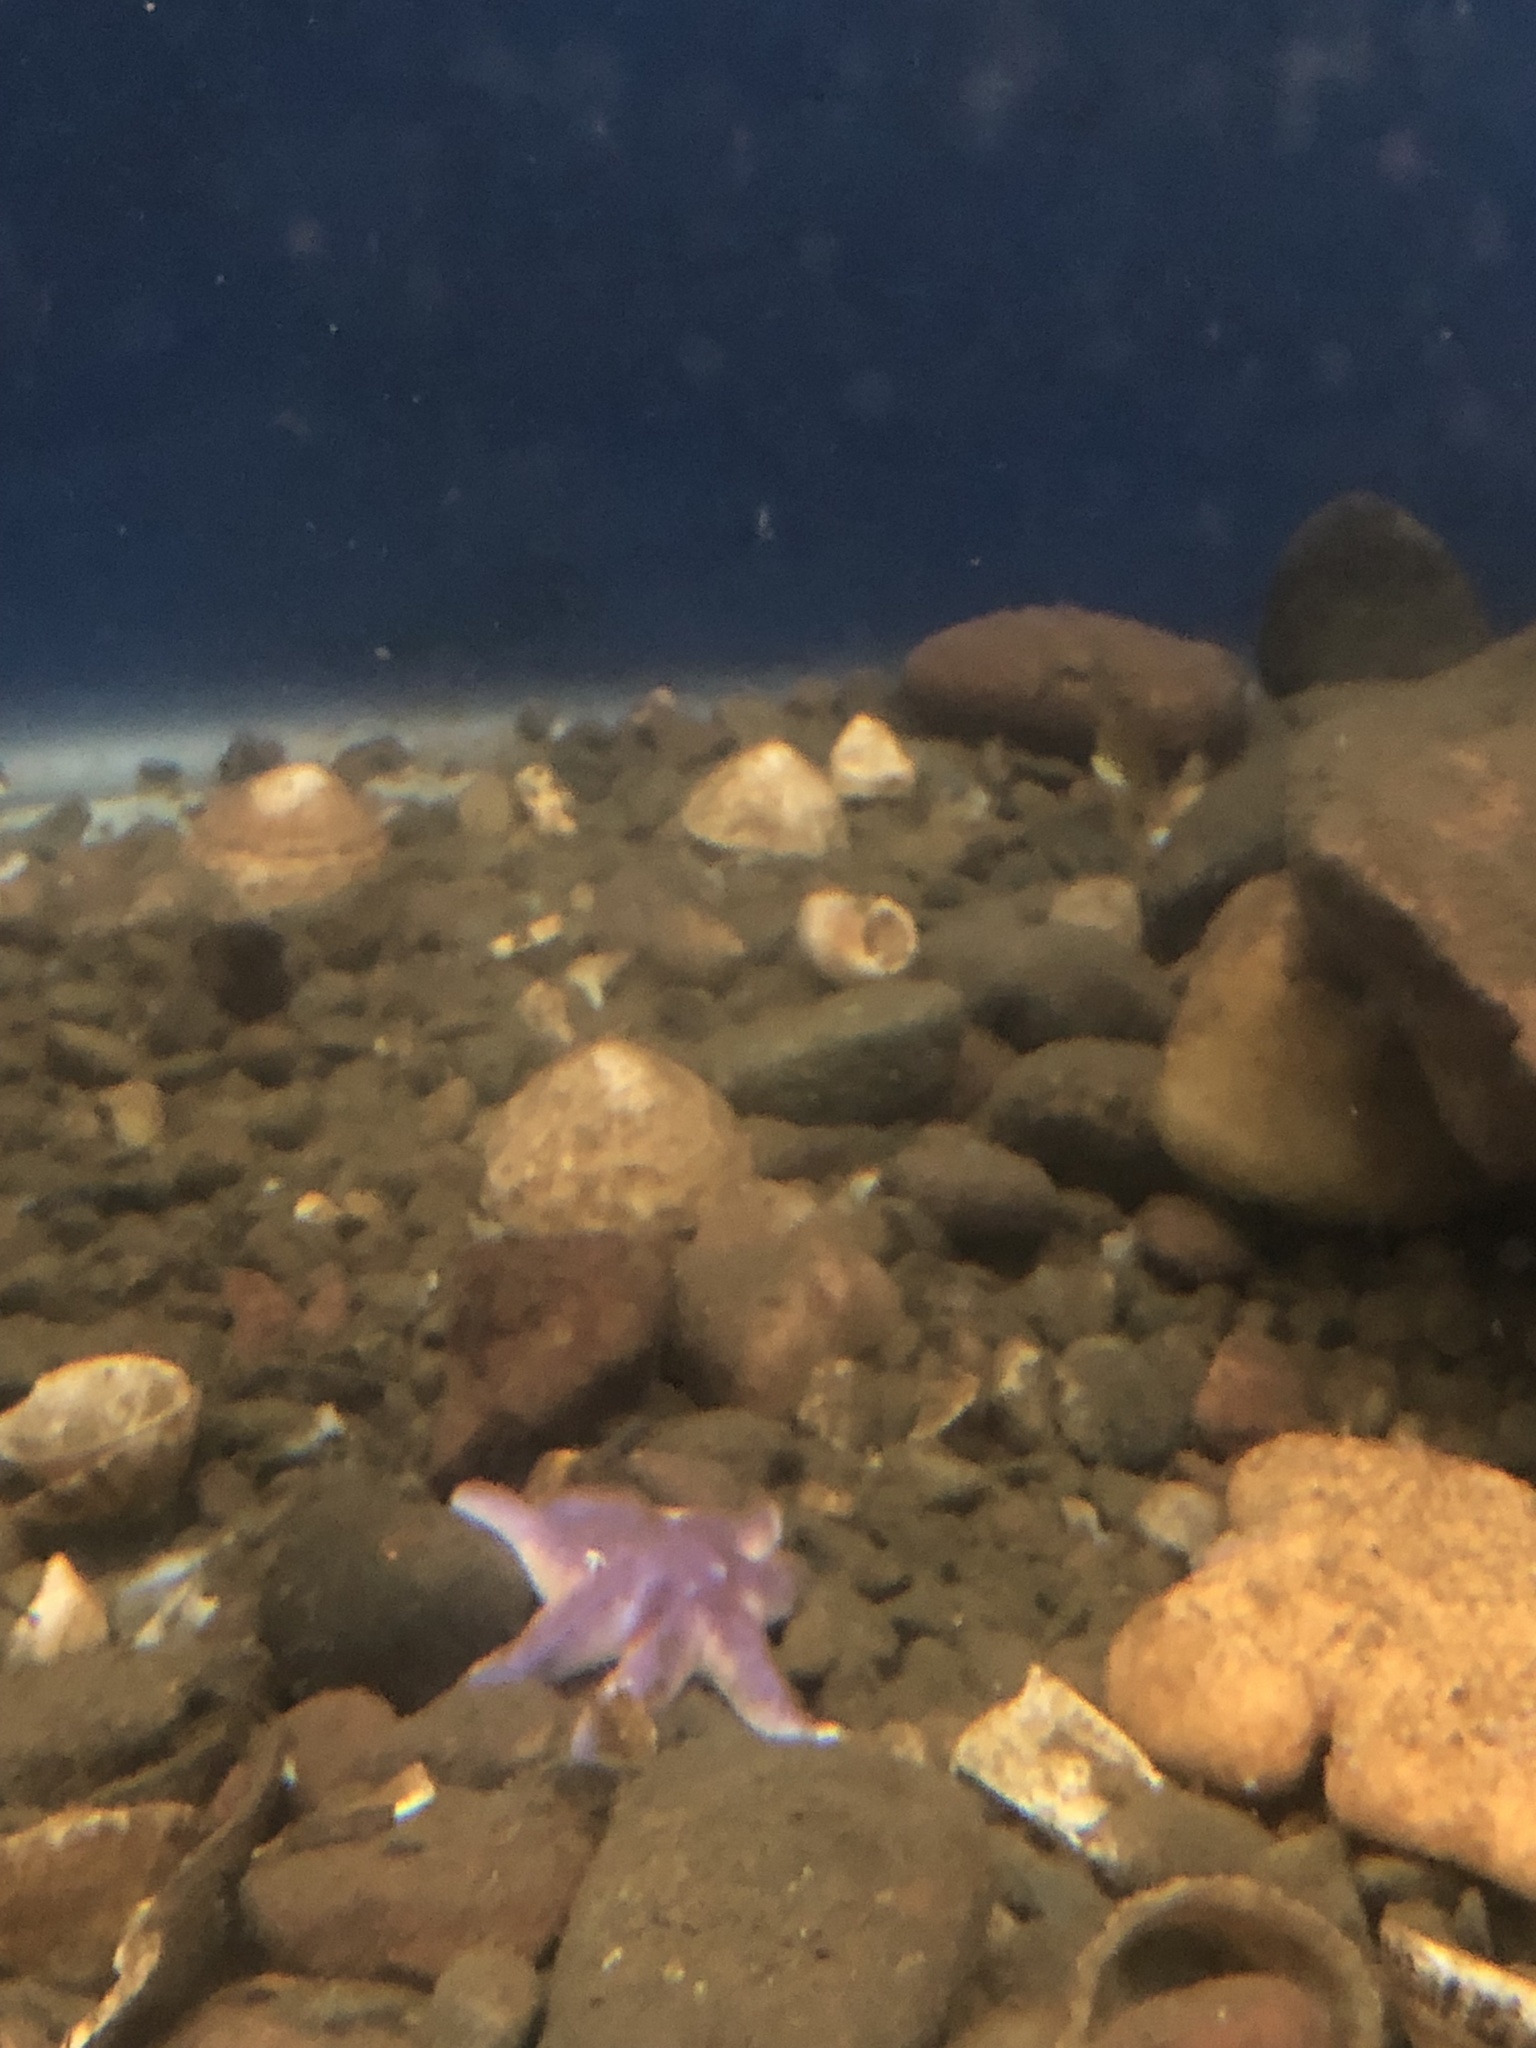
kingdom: Animalia
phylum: Echinodermata
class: Asteroidea
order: Valvatida
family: Solasteridae
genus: Solaster
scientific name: Solaster endeca
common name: Purple sun star
